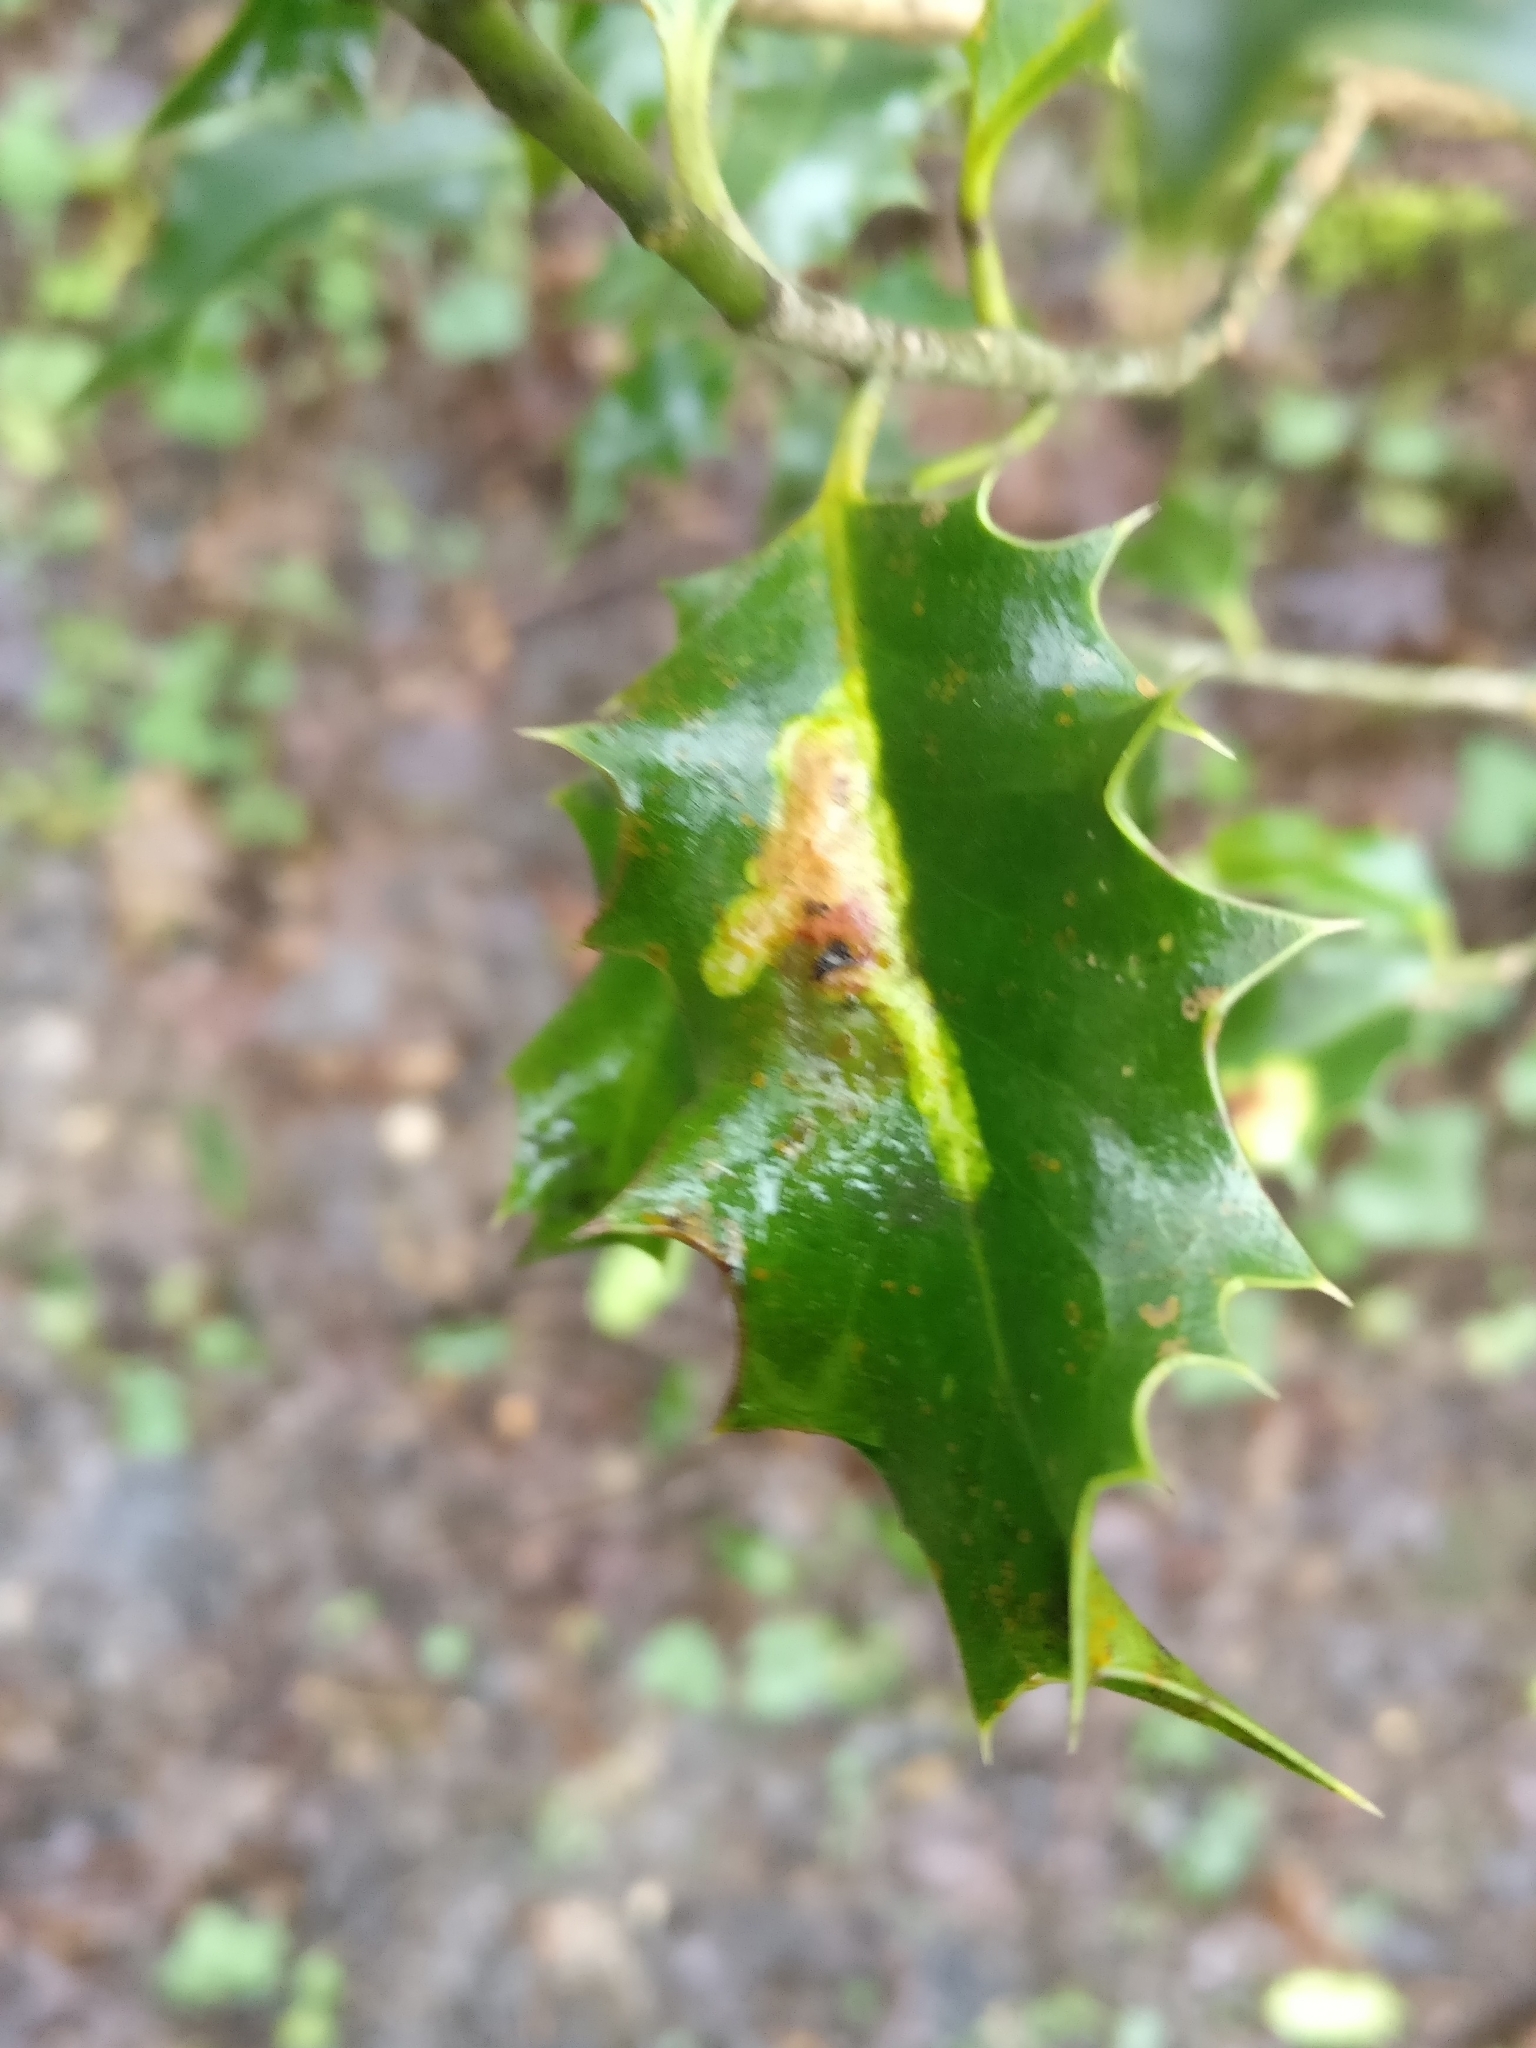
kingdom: Animalia
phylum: Arthropoda
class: Insecta
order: Diptera
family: Agromyzidae
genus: Phytomyza
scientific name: Phytomyza ilicis
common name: Holly leafminer
